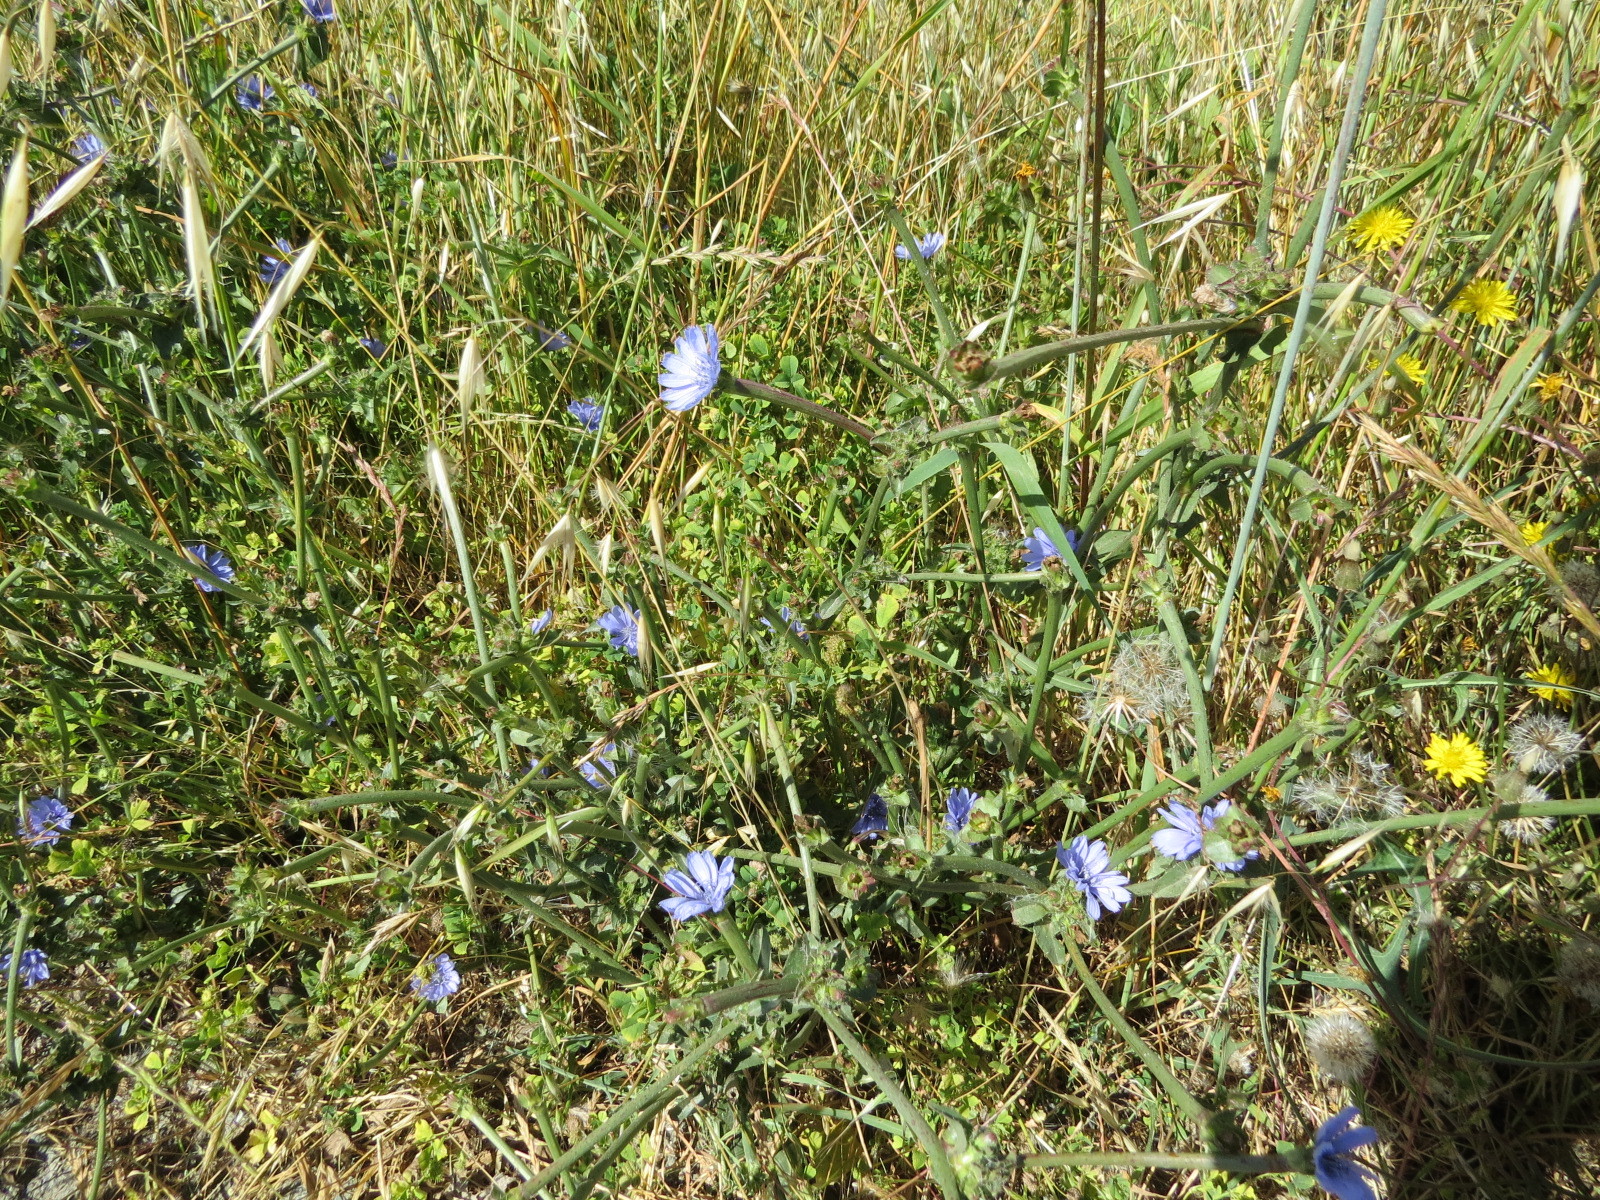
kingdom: Plantae
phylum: Tracheophyta
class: Magnoliopsida
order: Asterales
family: Asteraceae
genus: Cichorium
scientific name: Cichorium intybus
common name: Chicory
